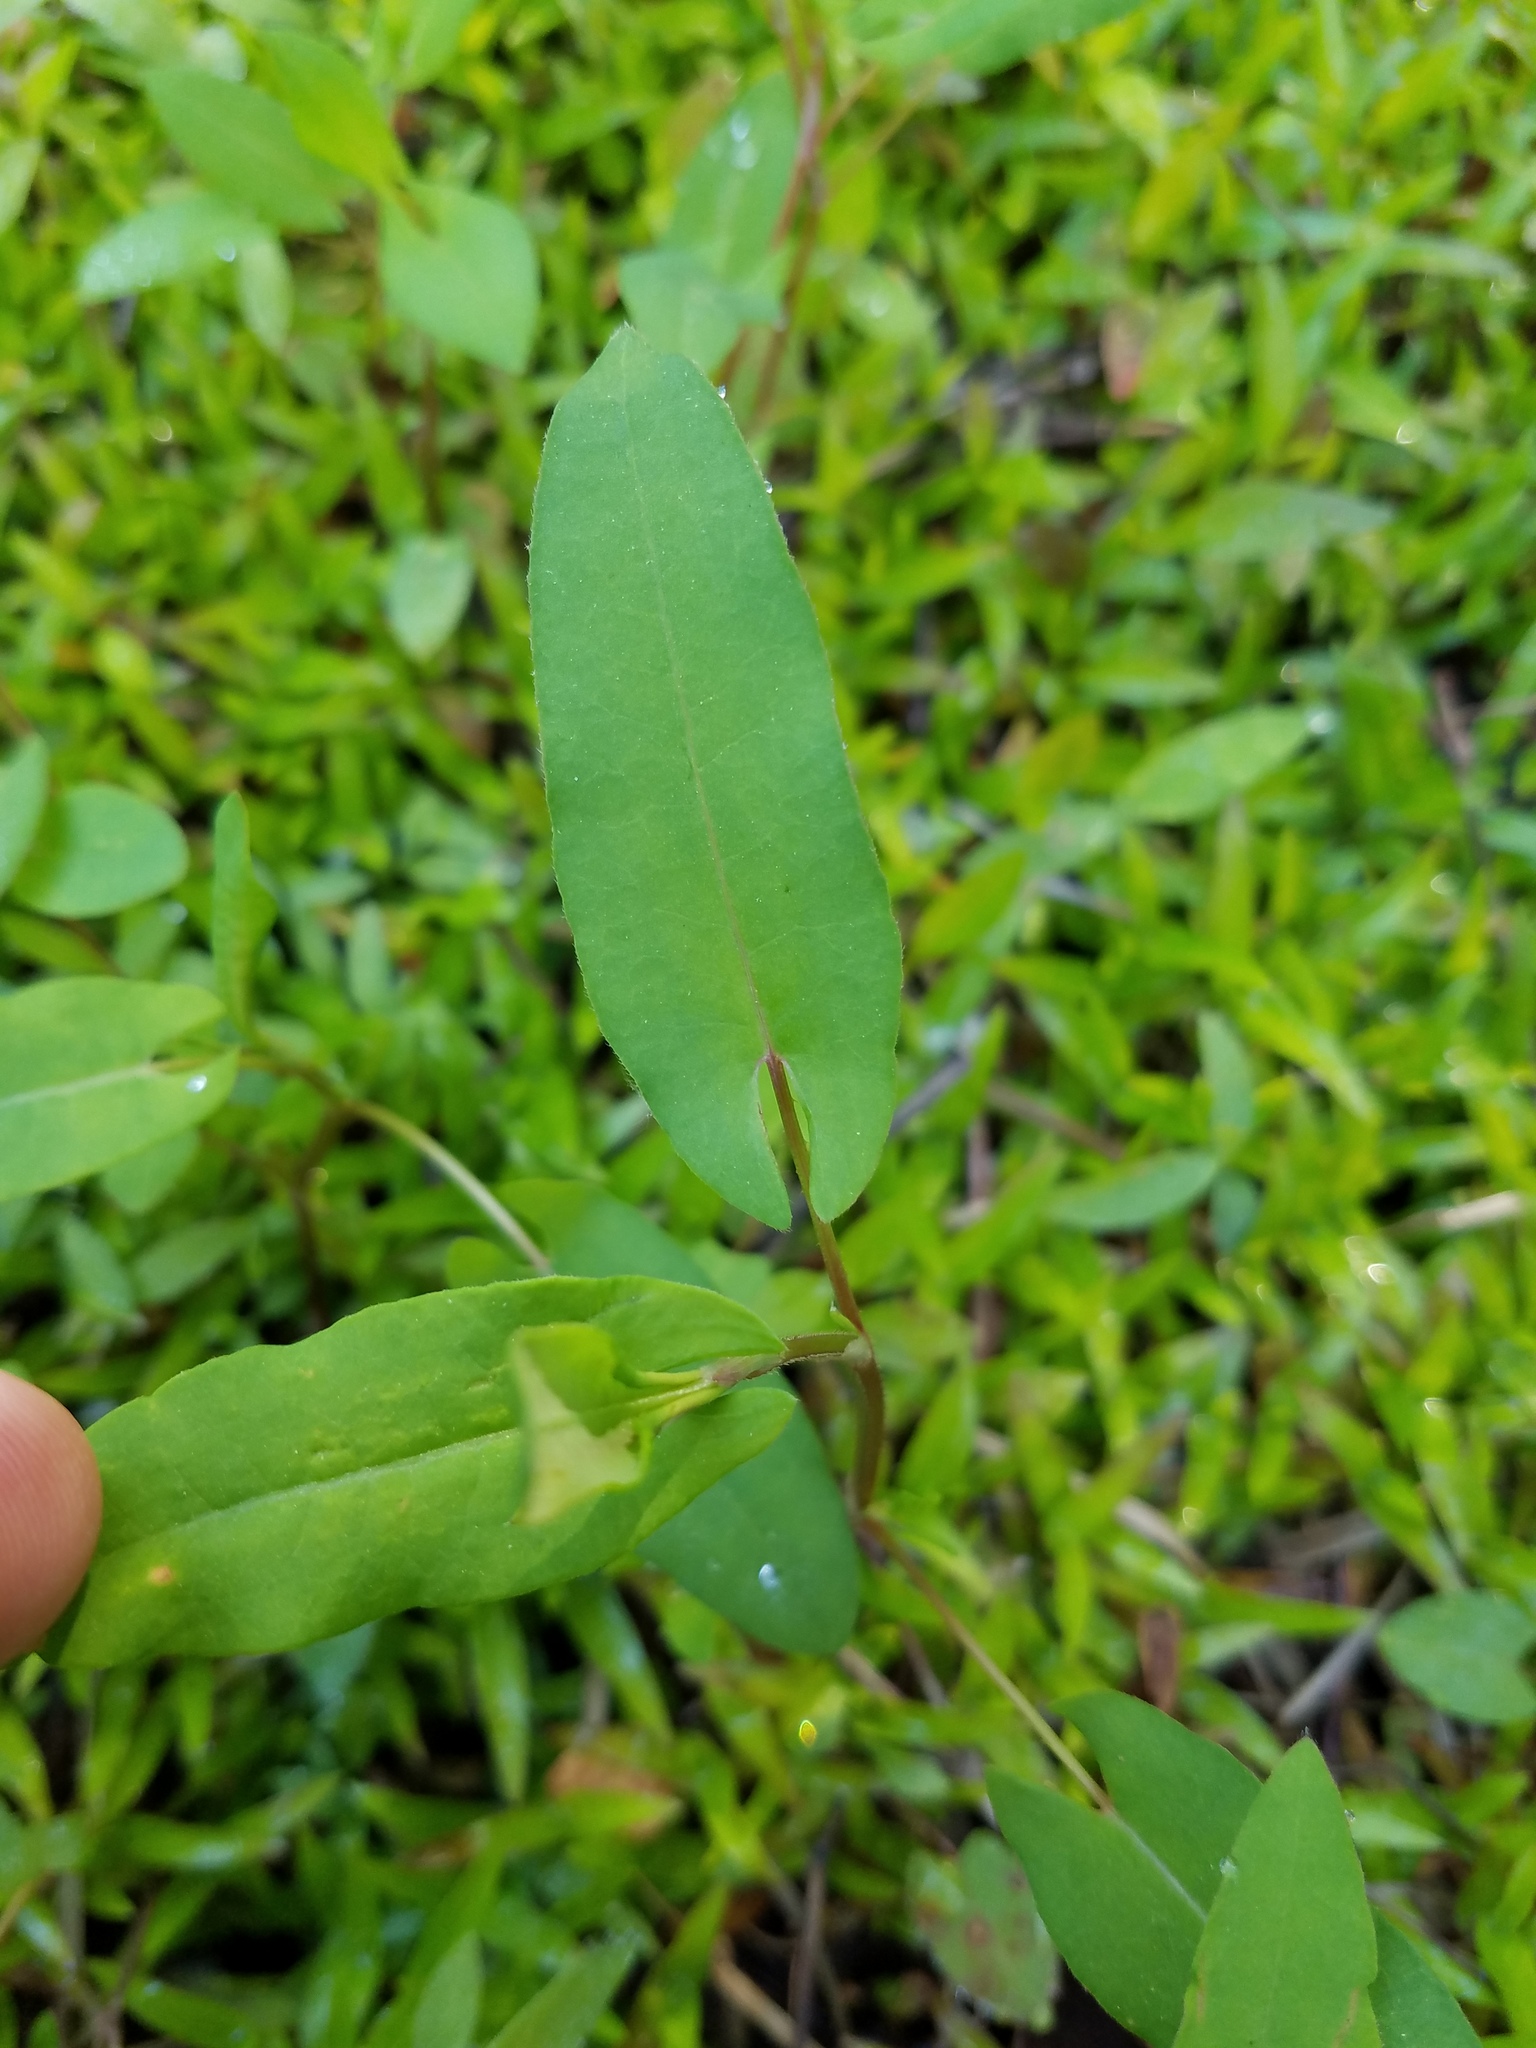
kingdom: Plantae
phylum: Tracheophyta
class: Magnoliopsida
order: Caryophyllales
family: Polygonaceae
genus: Persicaria
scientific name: Persicaria sagittata
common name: American tearthumb
